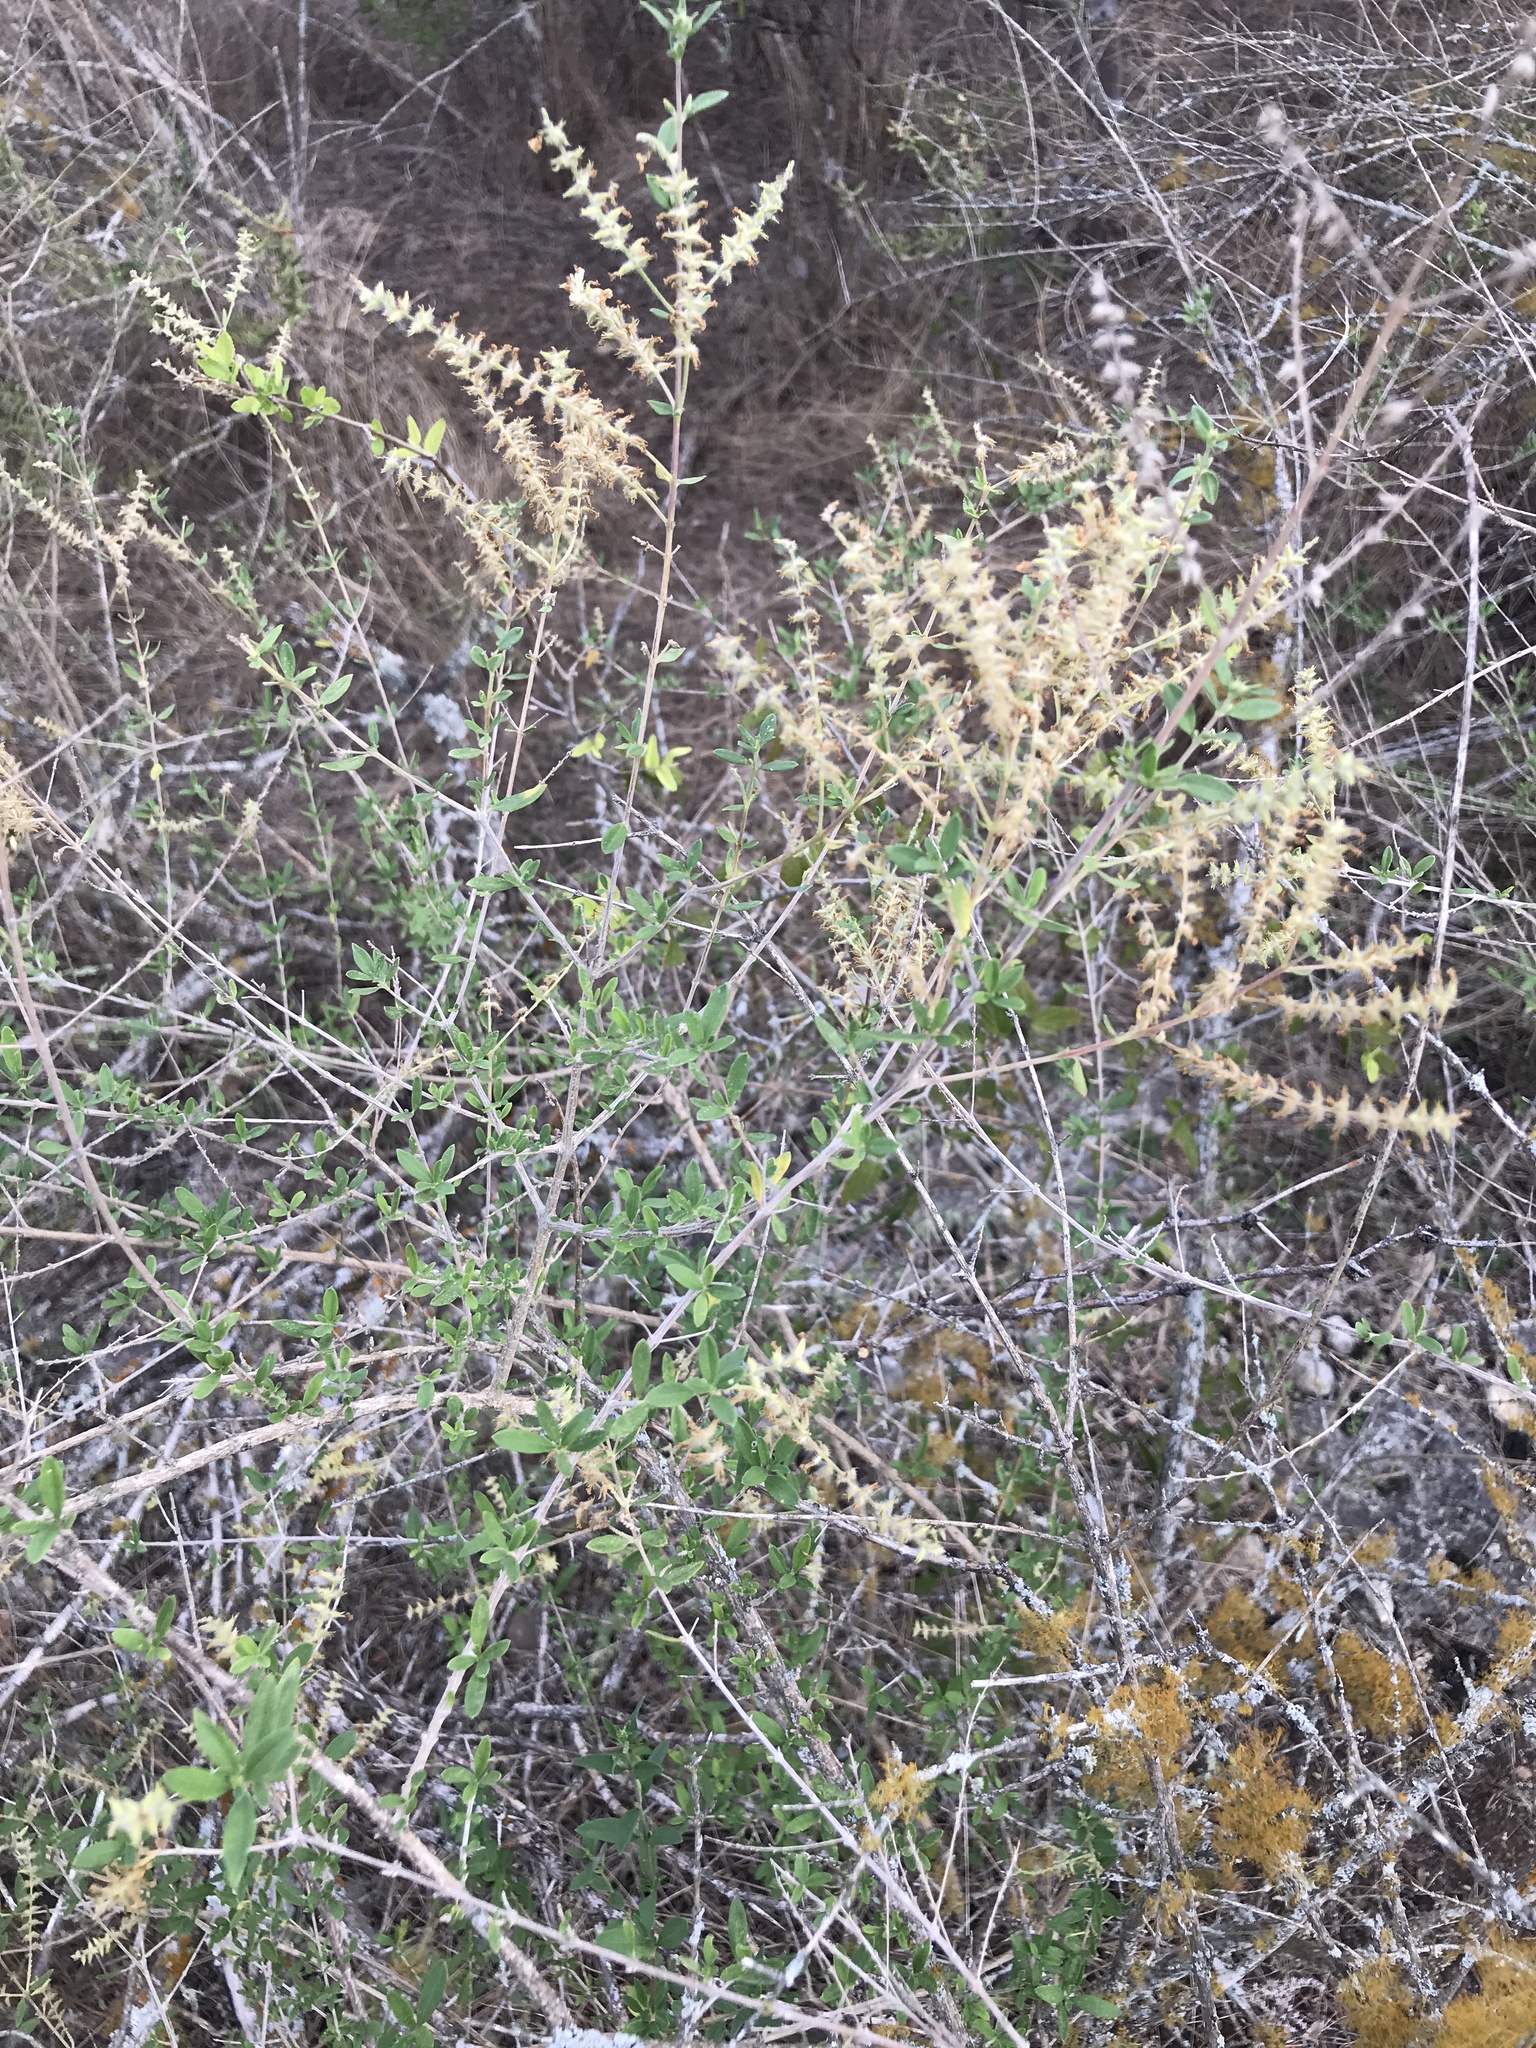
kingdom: Plantae
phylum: Tracheophyta
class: Magnoliopsida
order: Lamiales
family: Verbenaceae
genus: Aloysia
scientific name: Aloysia gratissima
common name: Common bee-brush
